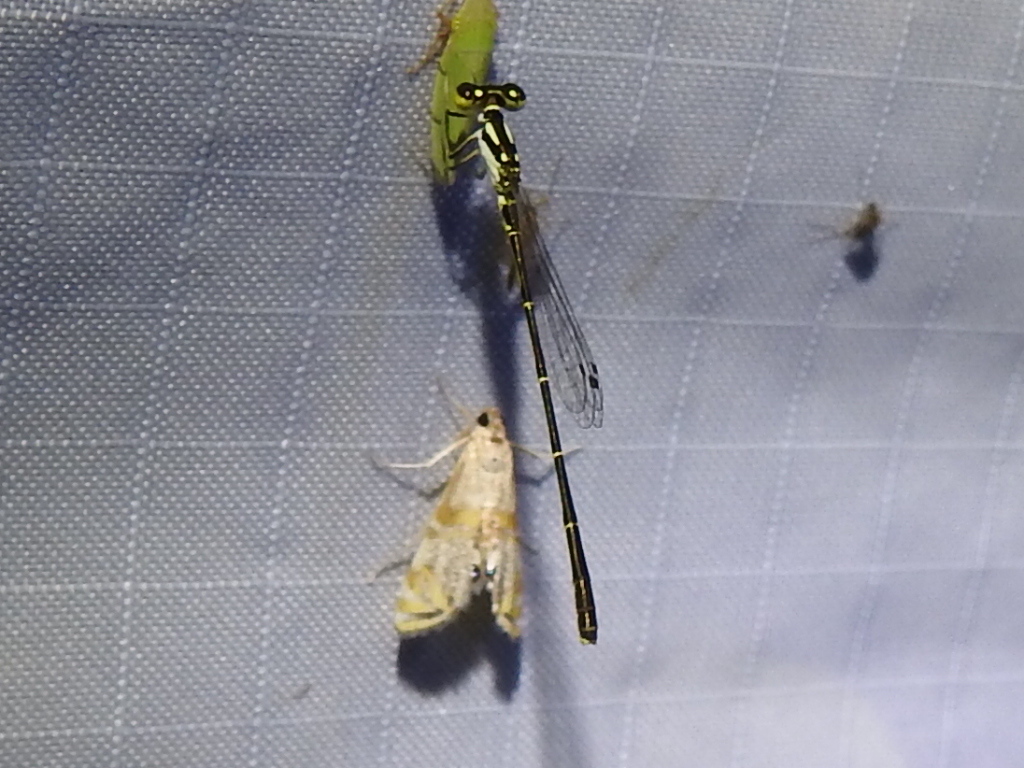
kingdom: Animalia
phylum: Arthropoda
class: Insecta
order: Odonata
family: Coenagrionidae
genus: Ischnura
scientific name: Ischnura posita
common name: Fragile forktail
